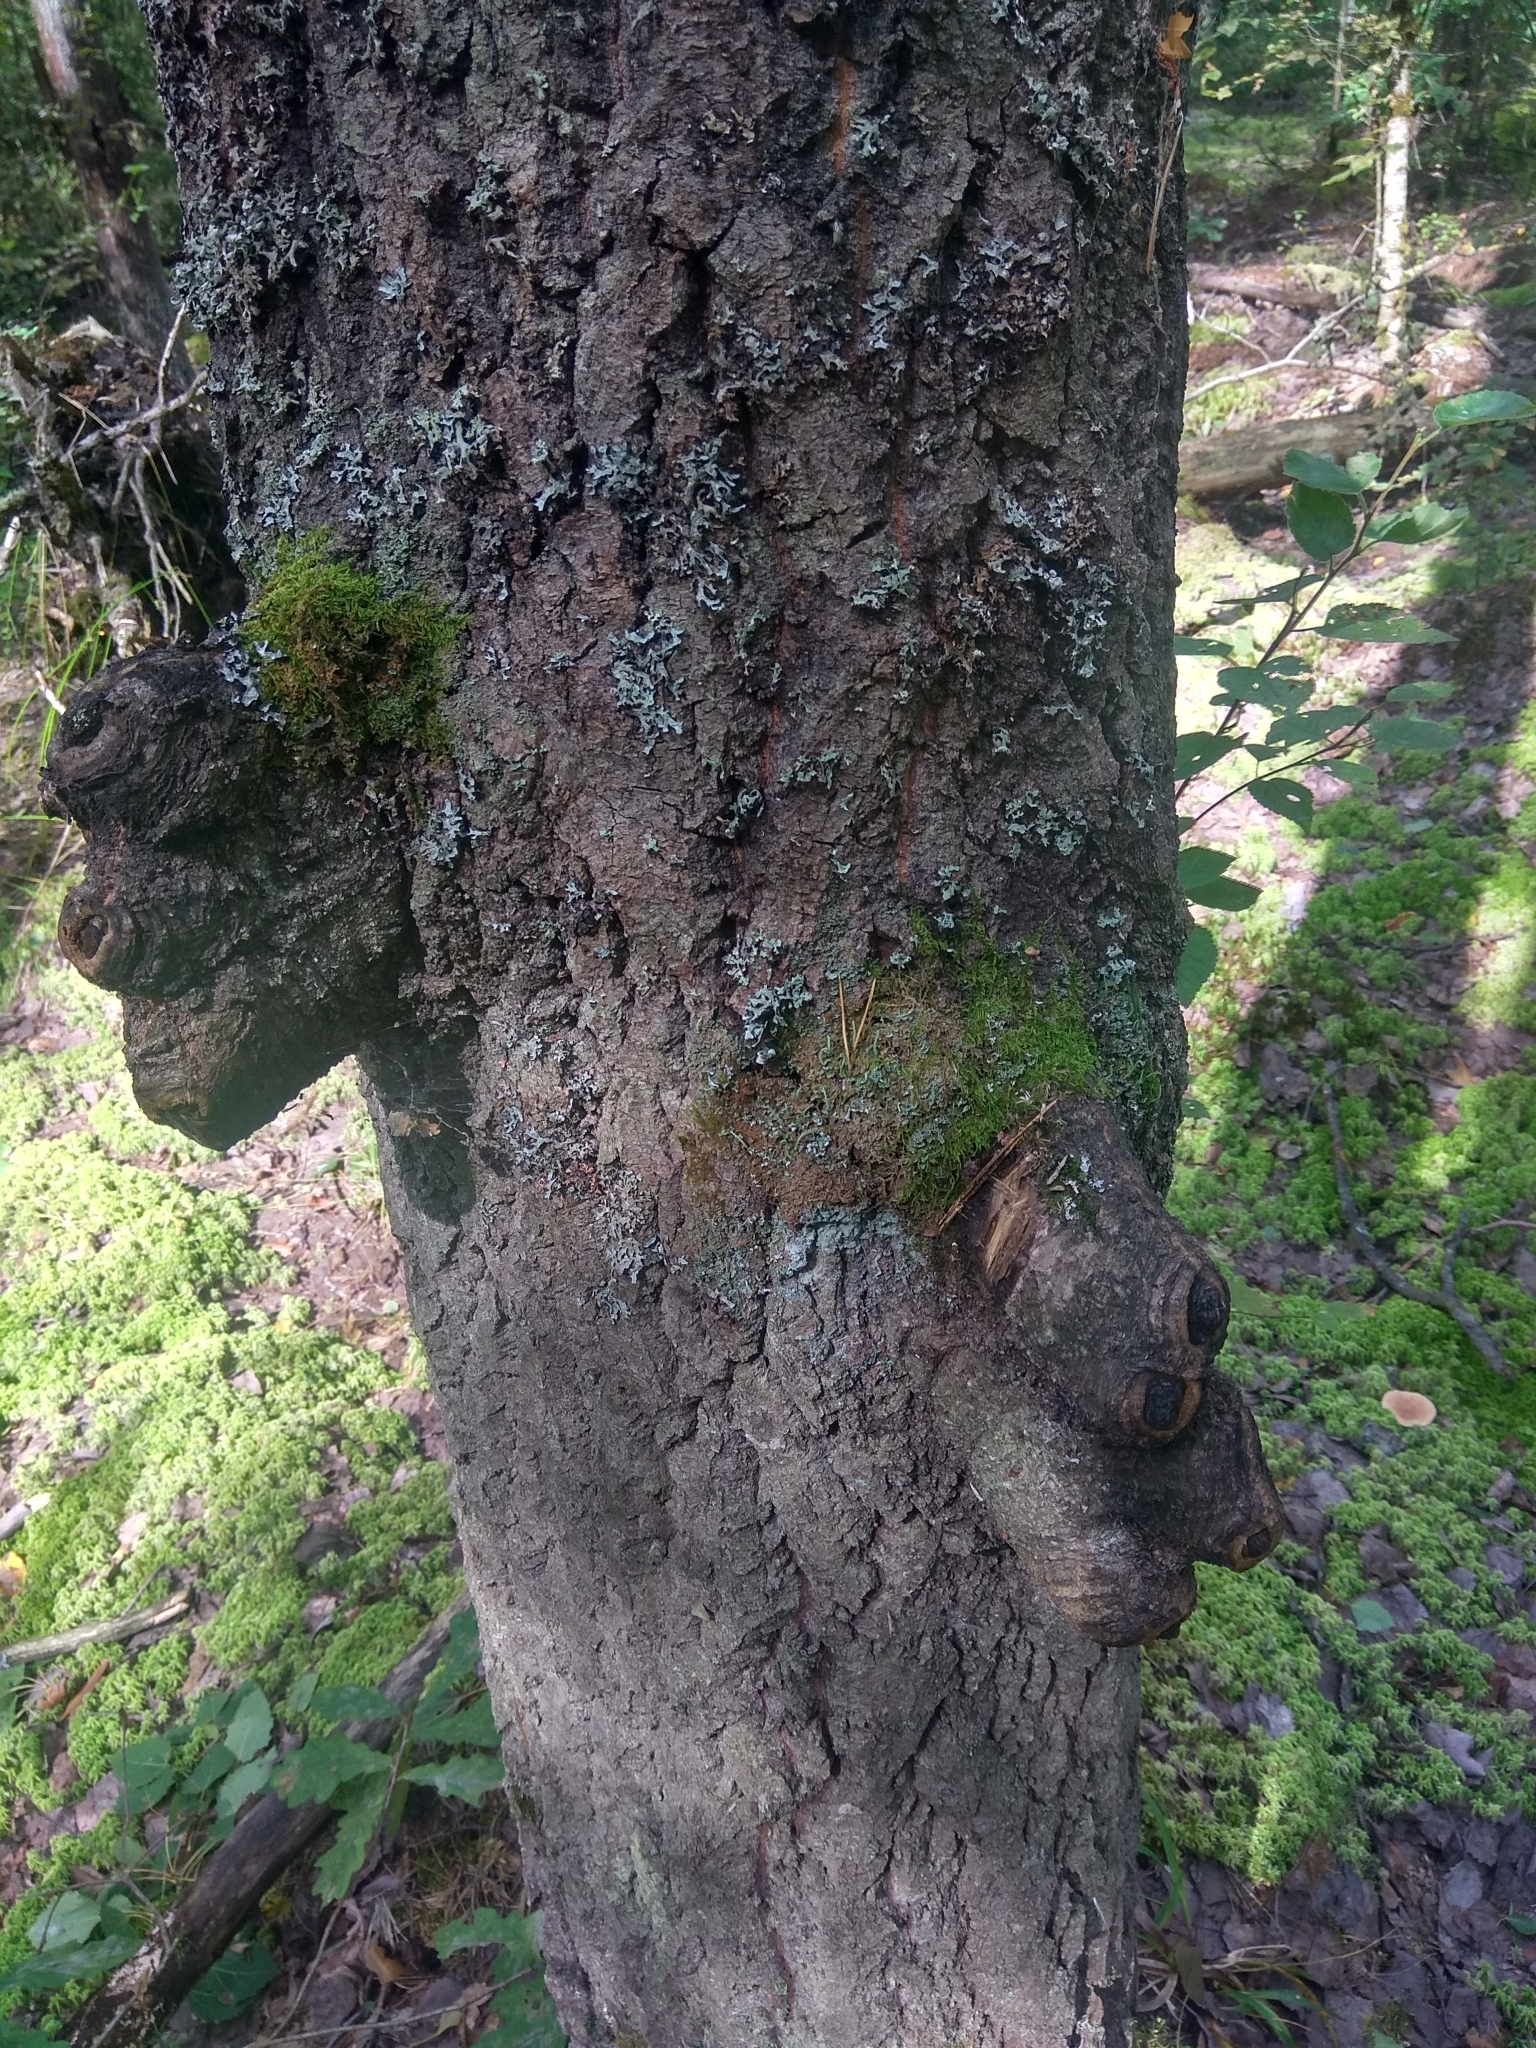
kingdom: Plantae
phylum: Tracheophyta
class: Magnoliopsida
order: Malpighiales
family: Salicaceae
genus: Populus
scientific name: Populus tremula
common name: European aspen
